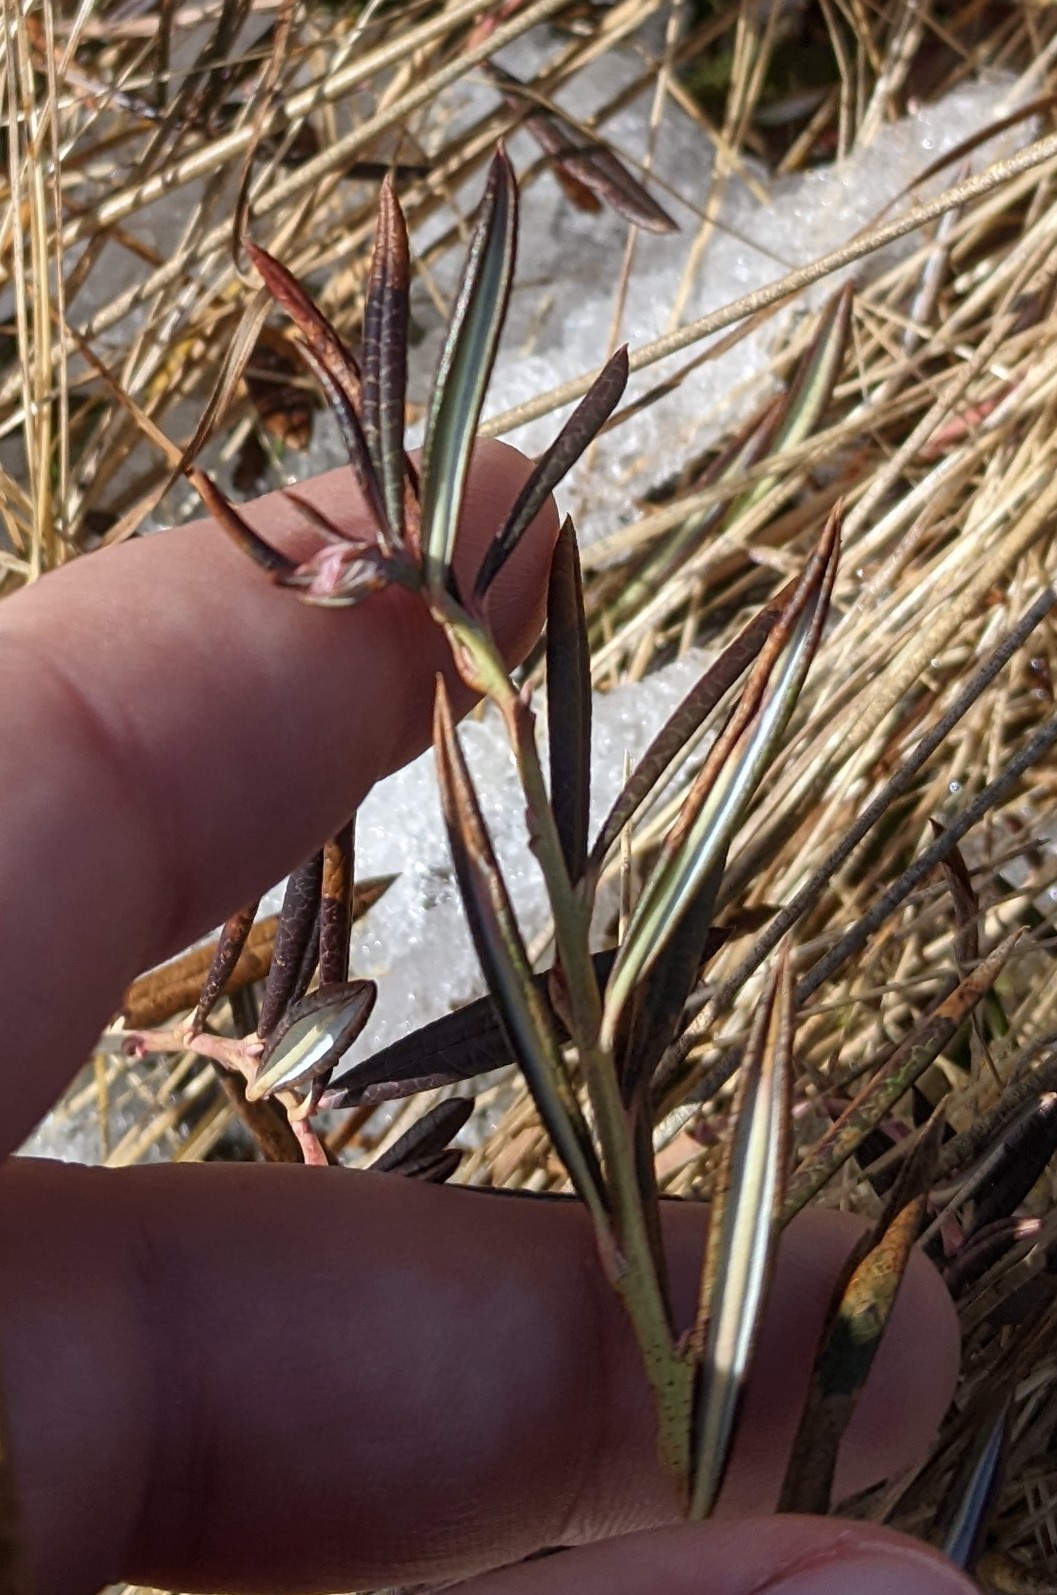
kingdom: Plantae
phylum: Tracheophyta
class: Magnoliopsida
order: Ericales
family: Ericaceae
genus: Andromeda
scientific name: Andromeda polifolia
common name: Bog-rosemary
